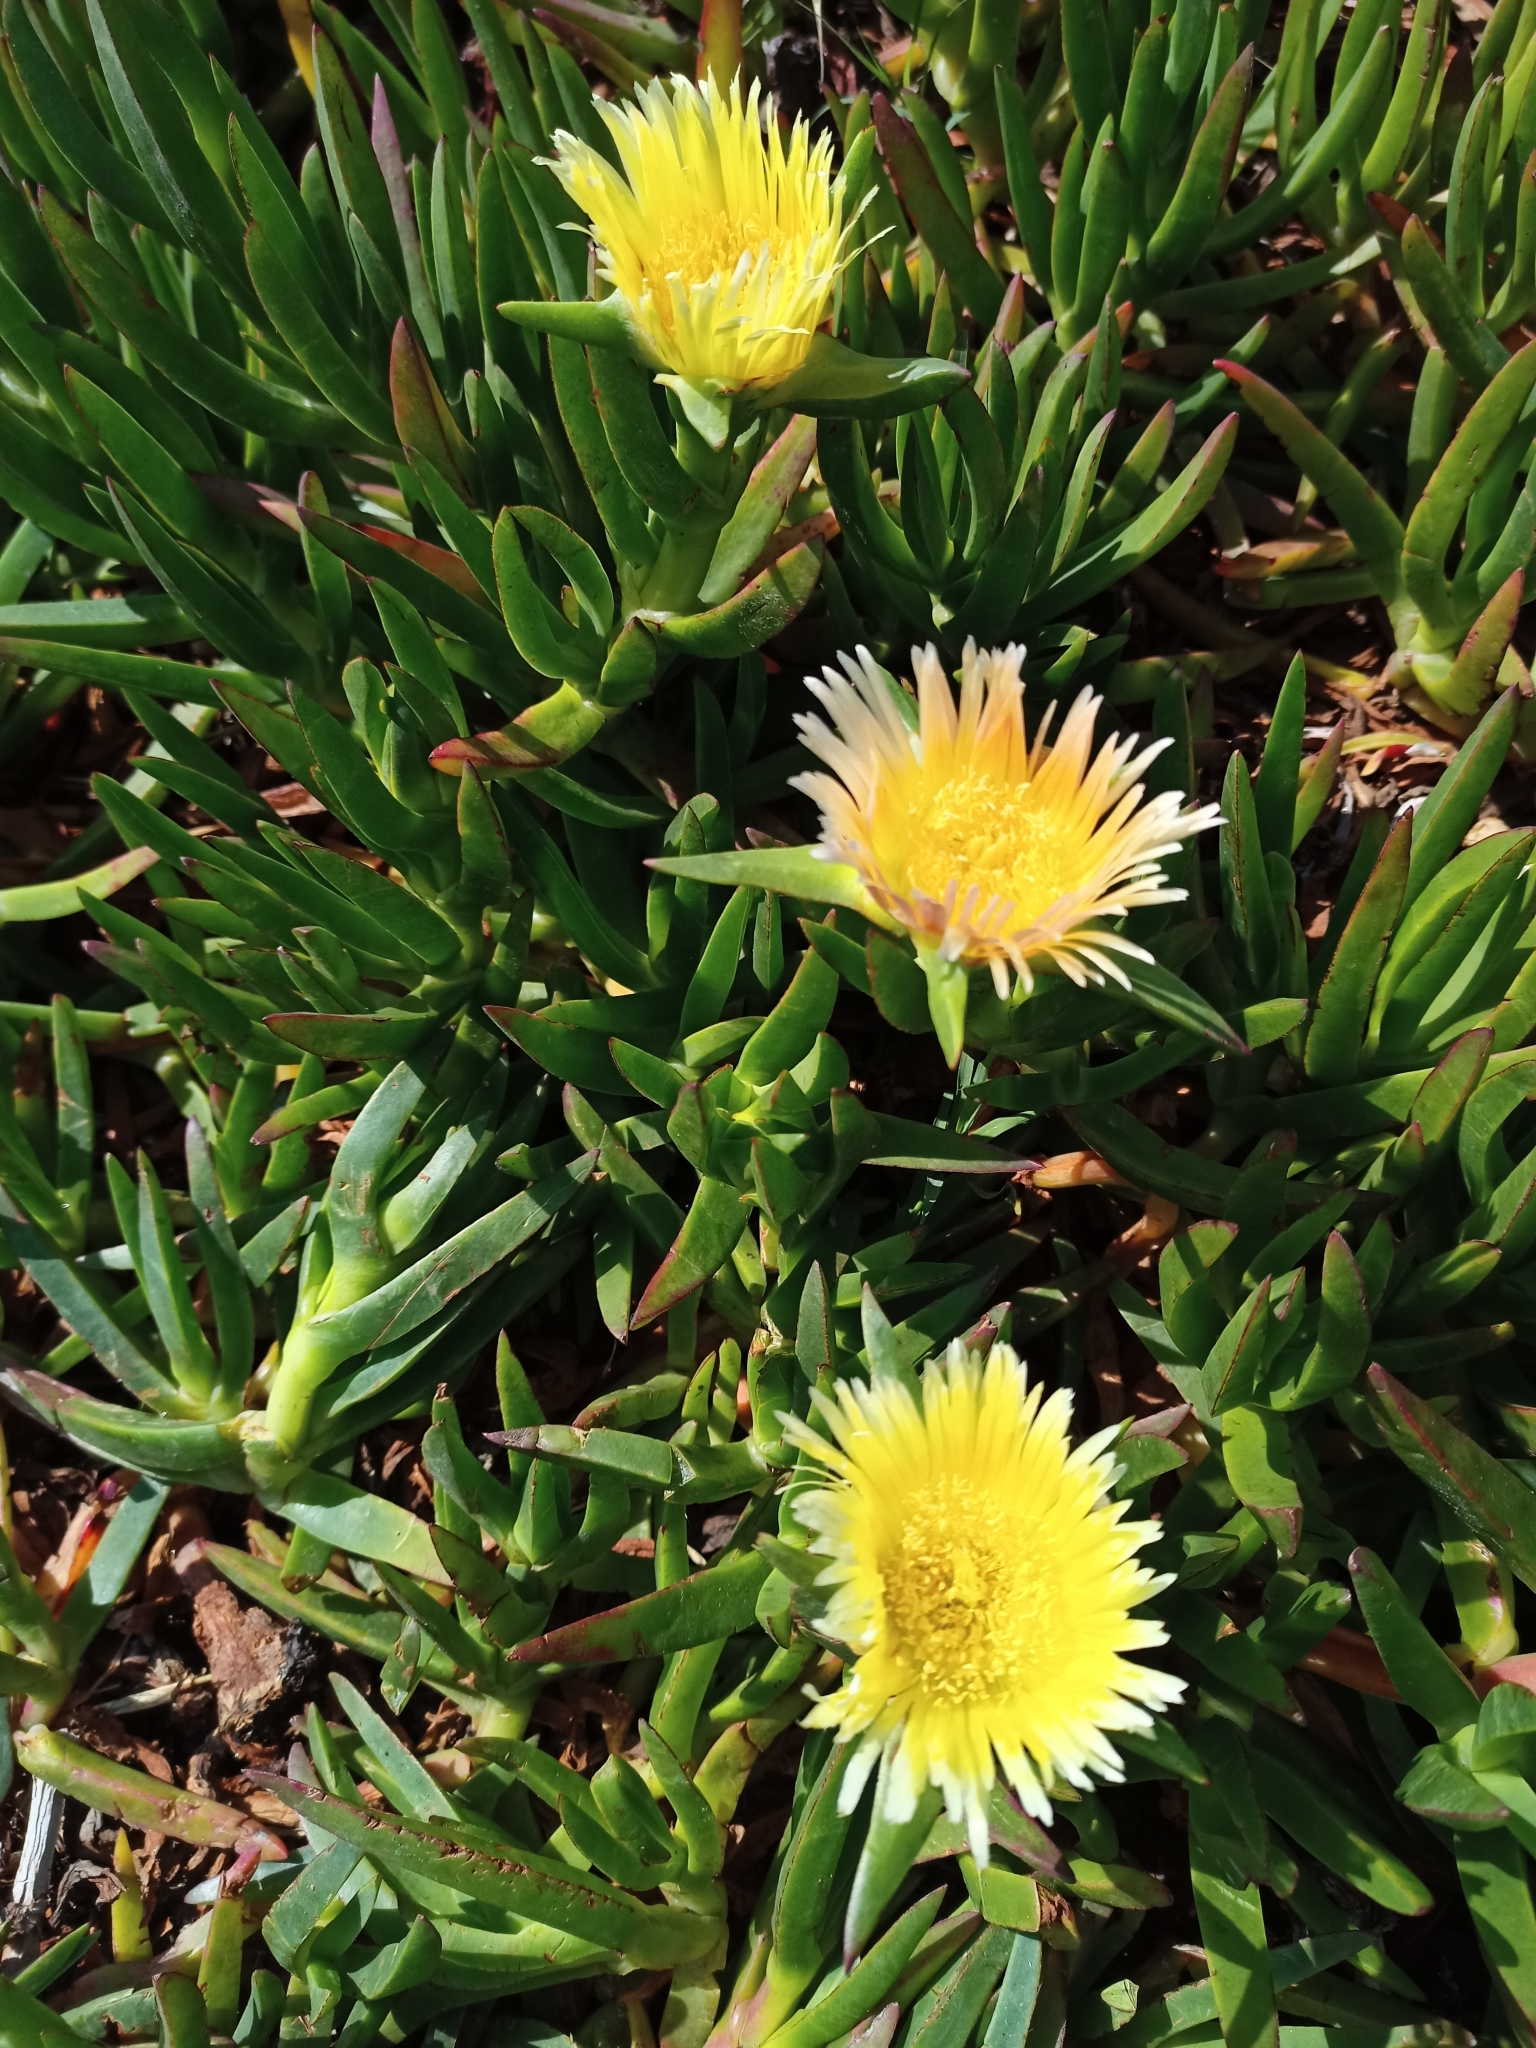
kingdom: Plantae
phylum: Tracheophyta
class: Magnoliopsida
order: Caryophyllales
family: Aizoaceae
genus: Carpobrotus
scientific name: Carpobrotus edulis
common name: Hottentot-fig
